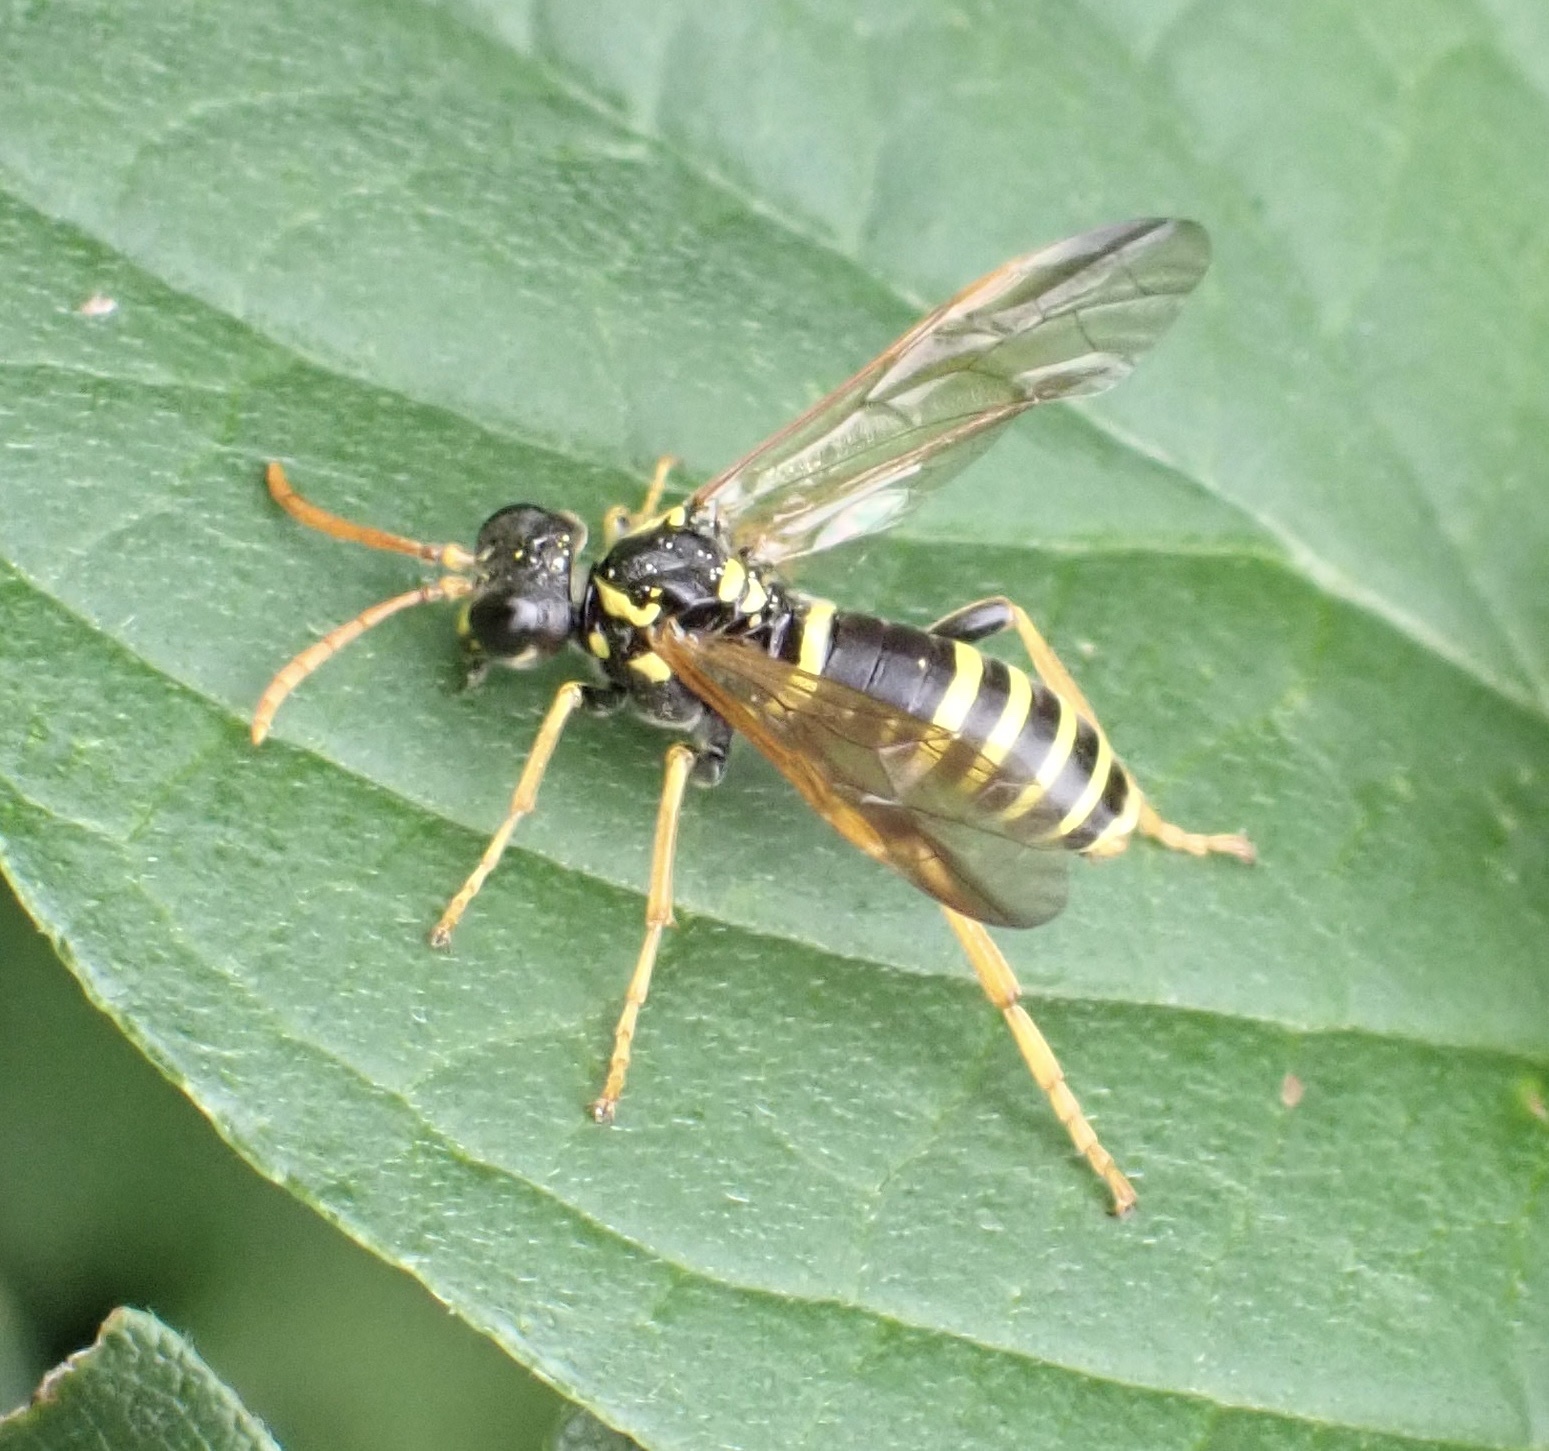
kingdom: Animalia
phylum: Arthropoda
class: Insecta
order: Hymenoptera
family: Tenthredinidae
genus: Tenthredo
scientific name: Tenthredo scrophulariae
